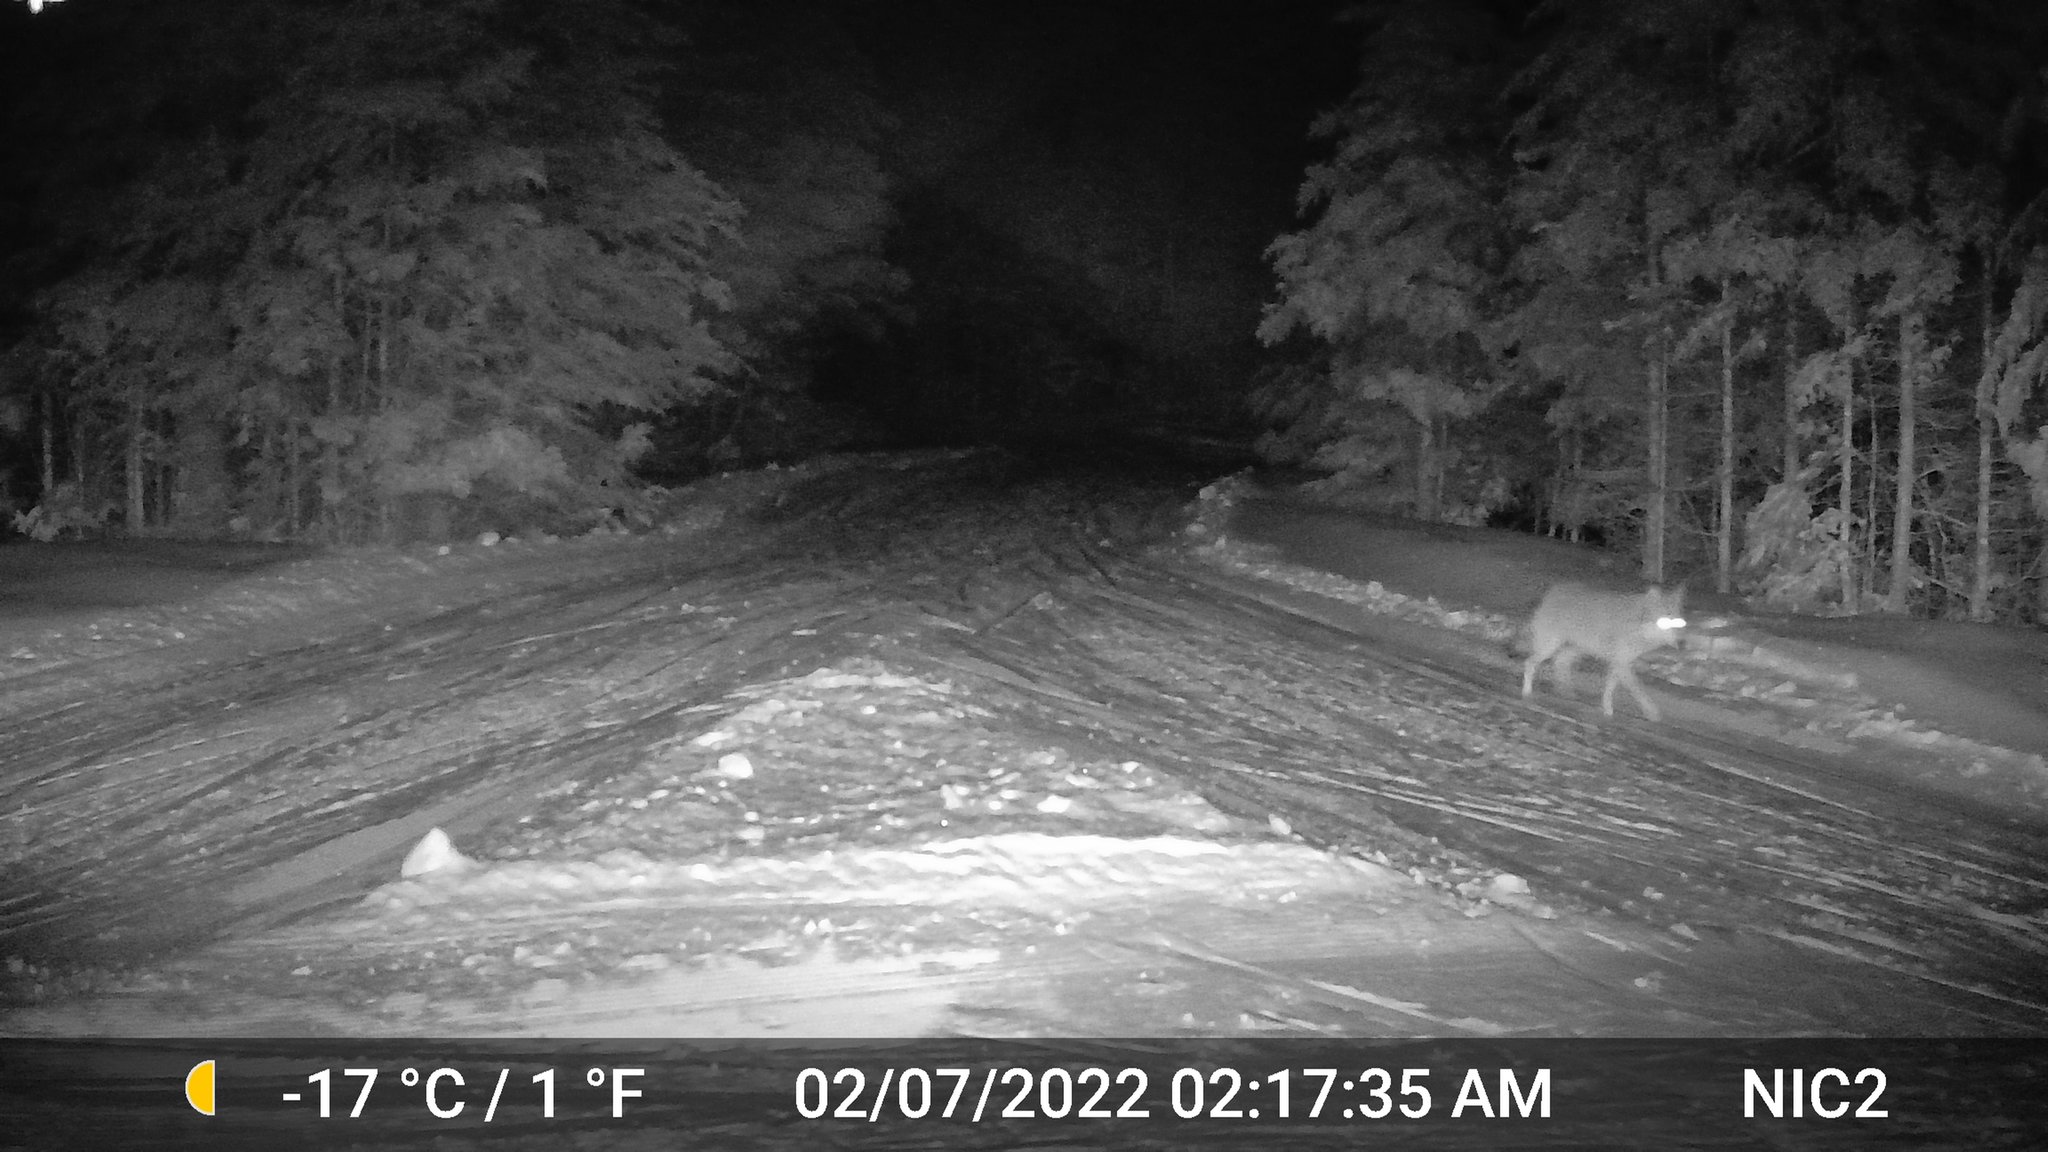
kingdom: Animalia
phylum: Chordata
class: Mammalia
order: Carnivora
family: Canidae
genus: Canis
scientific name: Canis latrans
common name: Coyote
